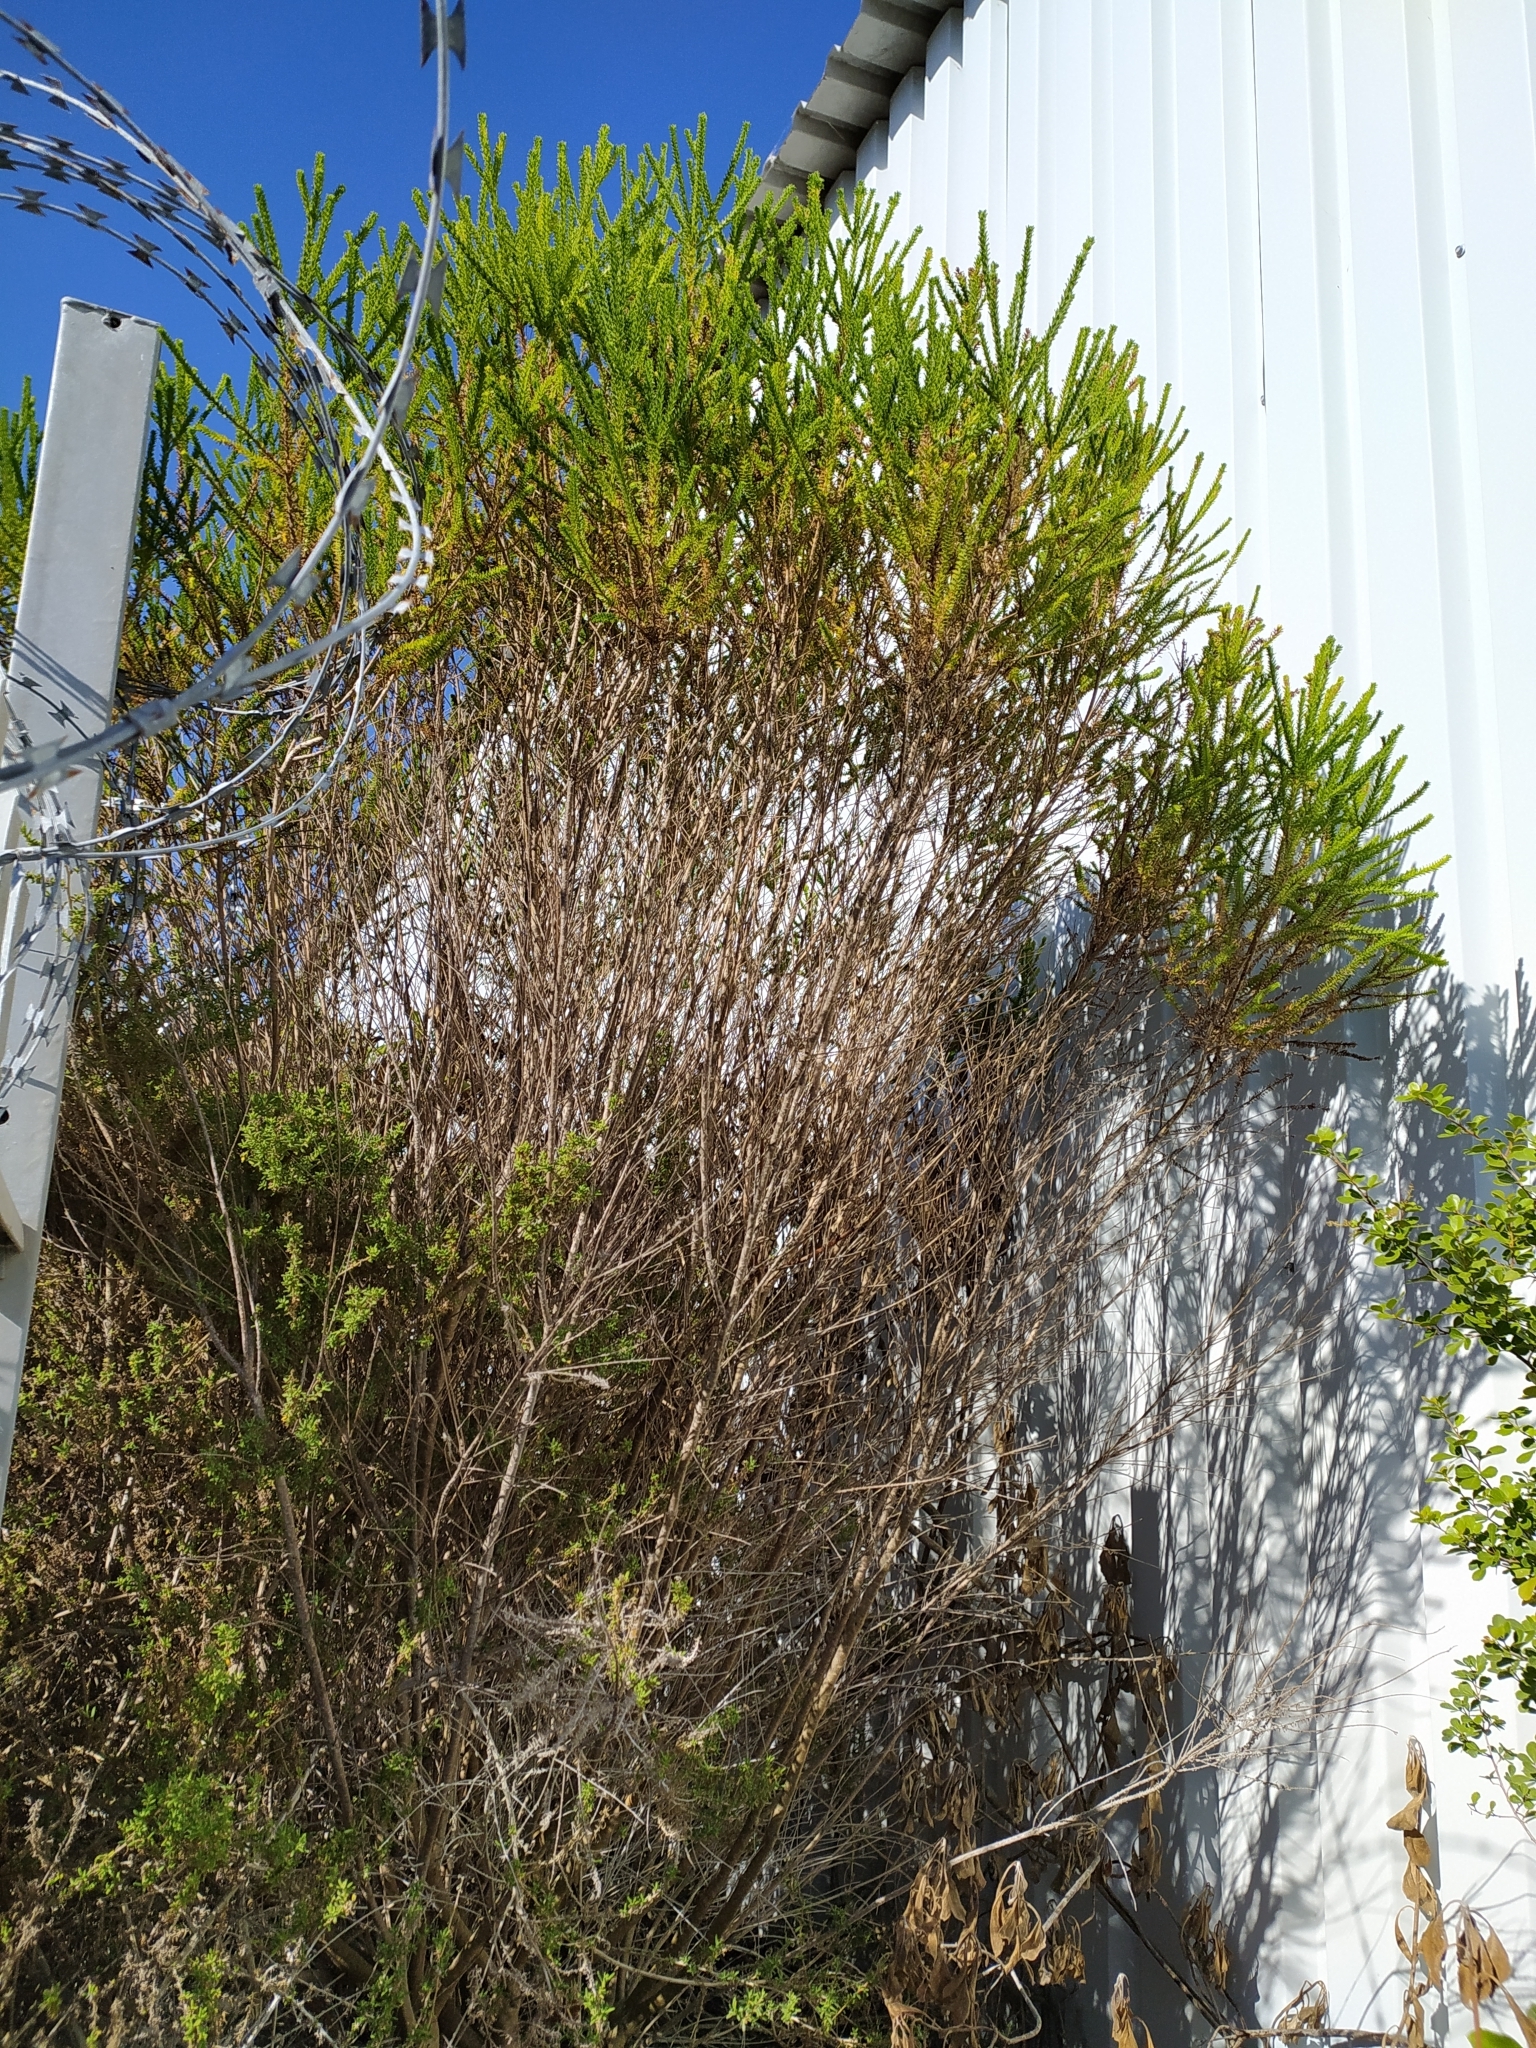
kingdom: Plantae
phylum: Tracheophyta
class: Magnoliopsida
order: Asterales
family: Asteraceae
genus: Euryops
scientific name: Euryops virgineus
